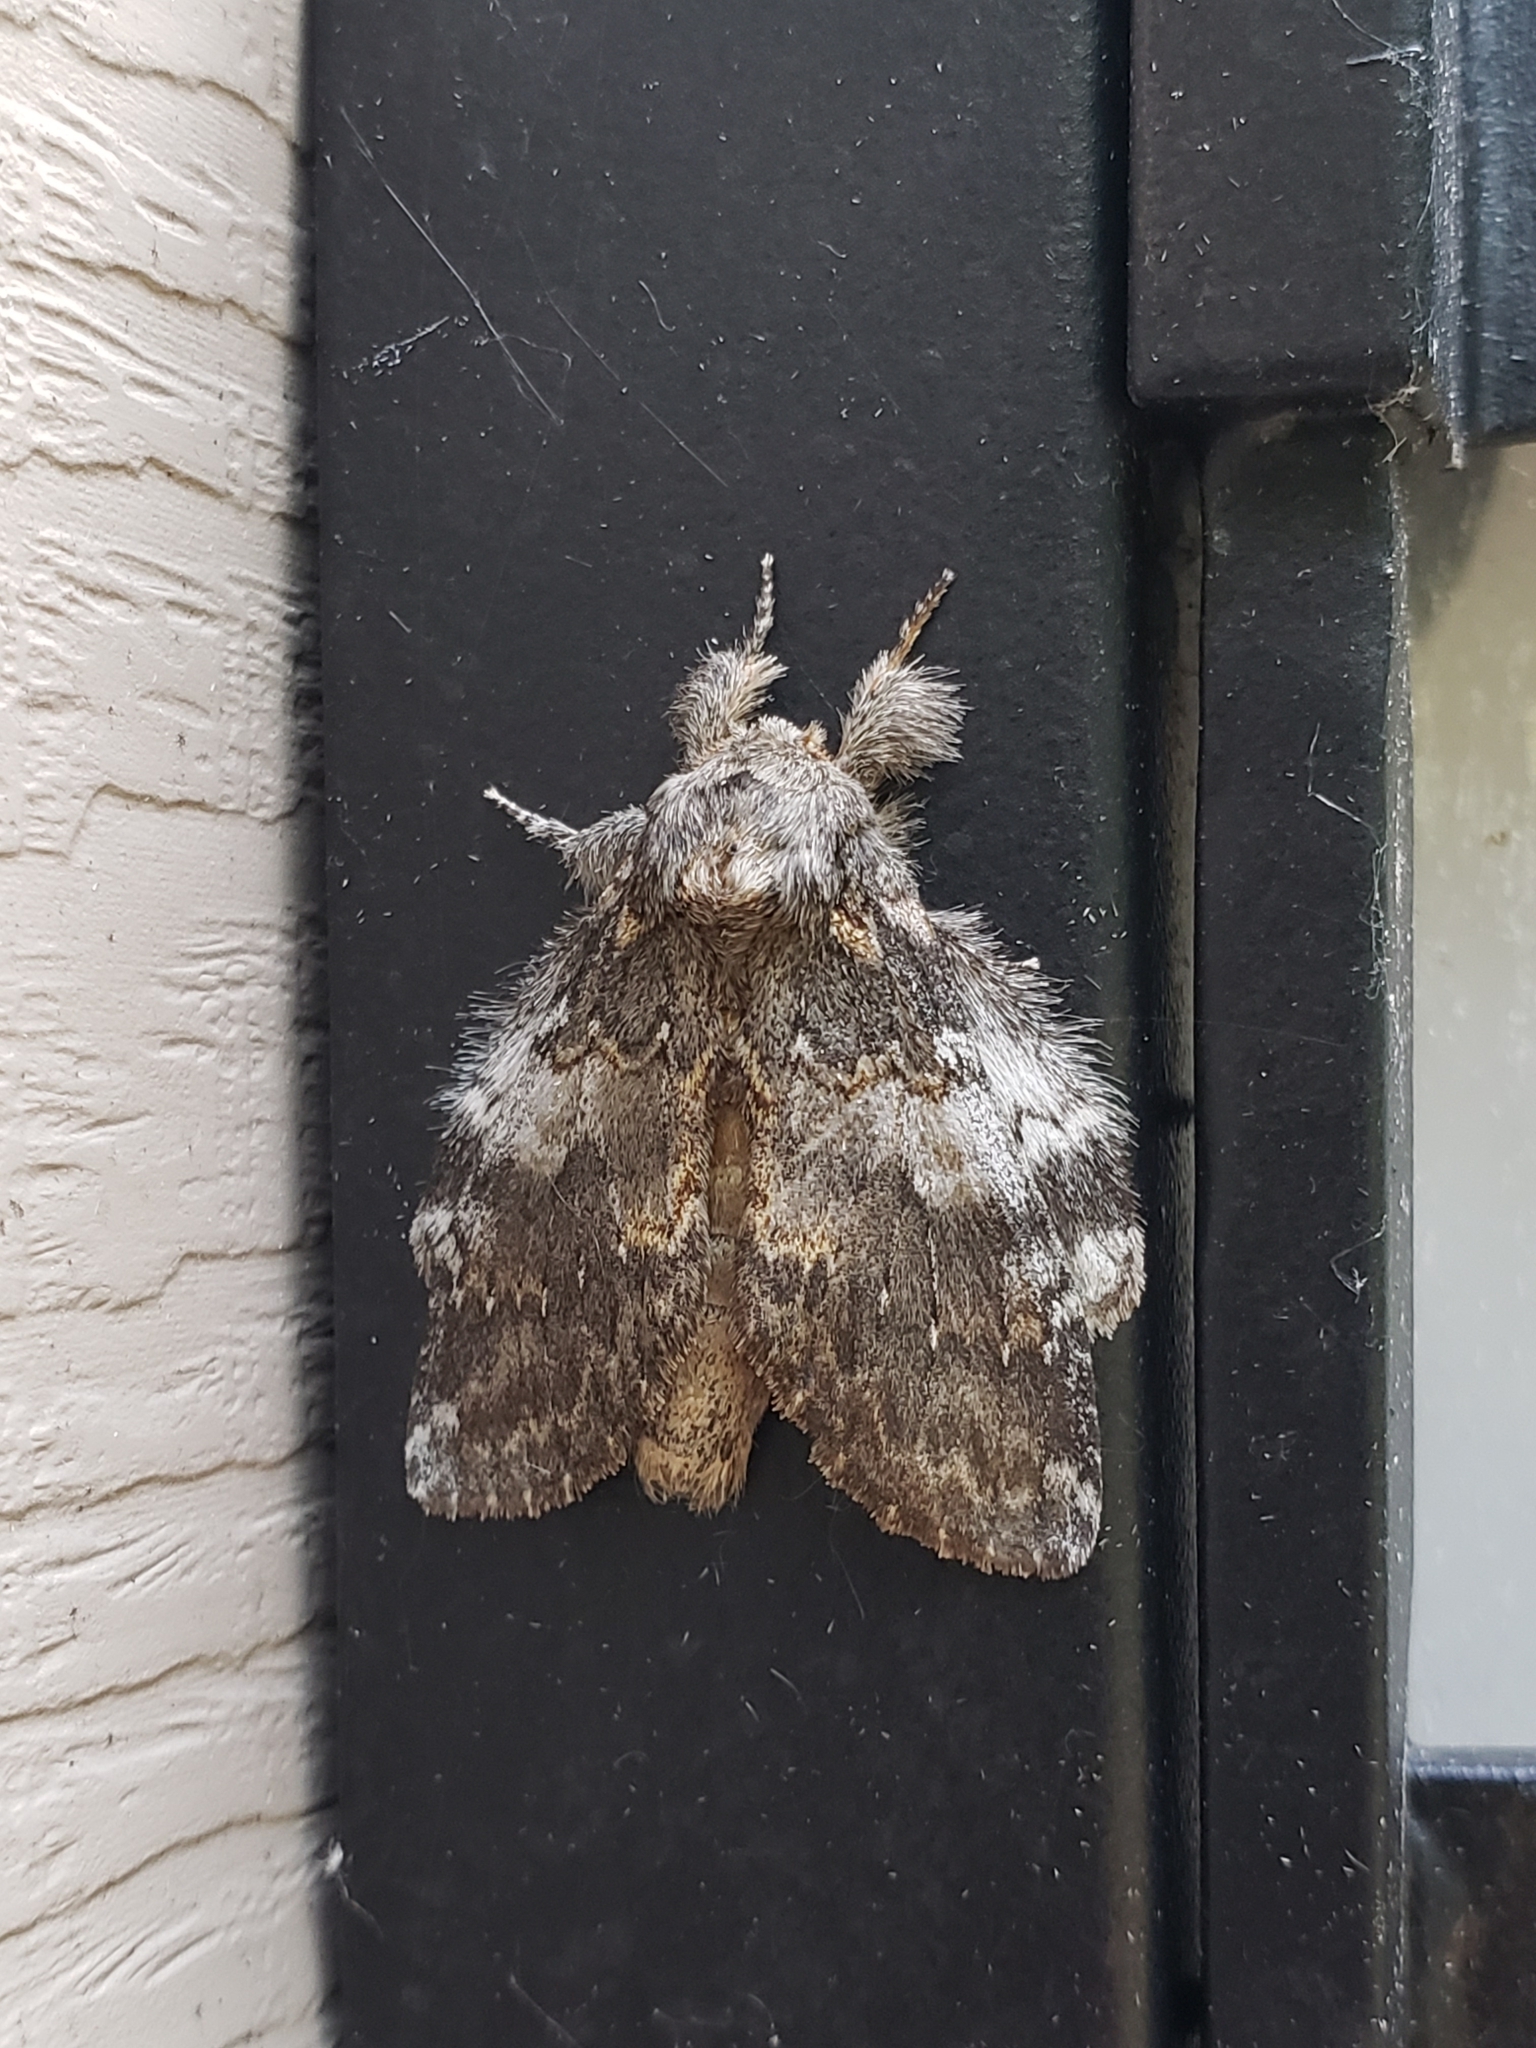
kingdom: Animalia
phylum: Arthropoda
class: Insecta
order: Lepidoptera
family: Notodontidae
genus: Peridea
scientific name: Peridea angulosa
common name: Angulose prominent
